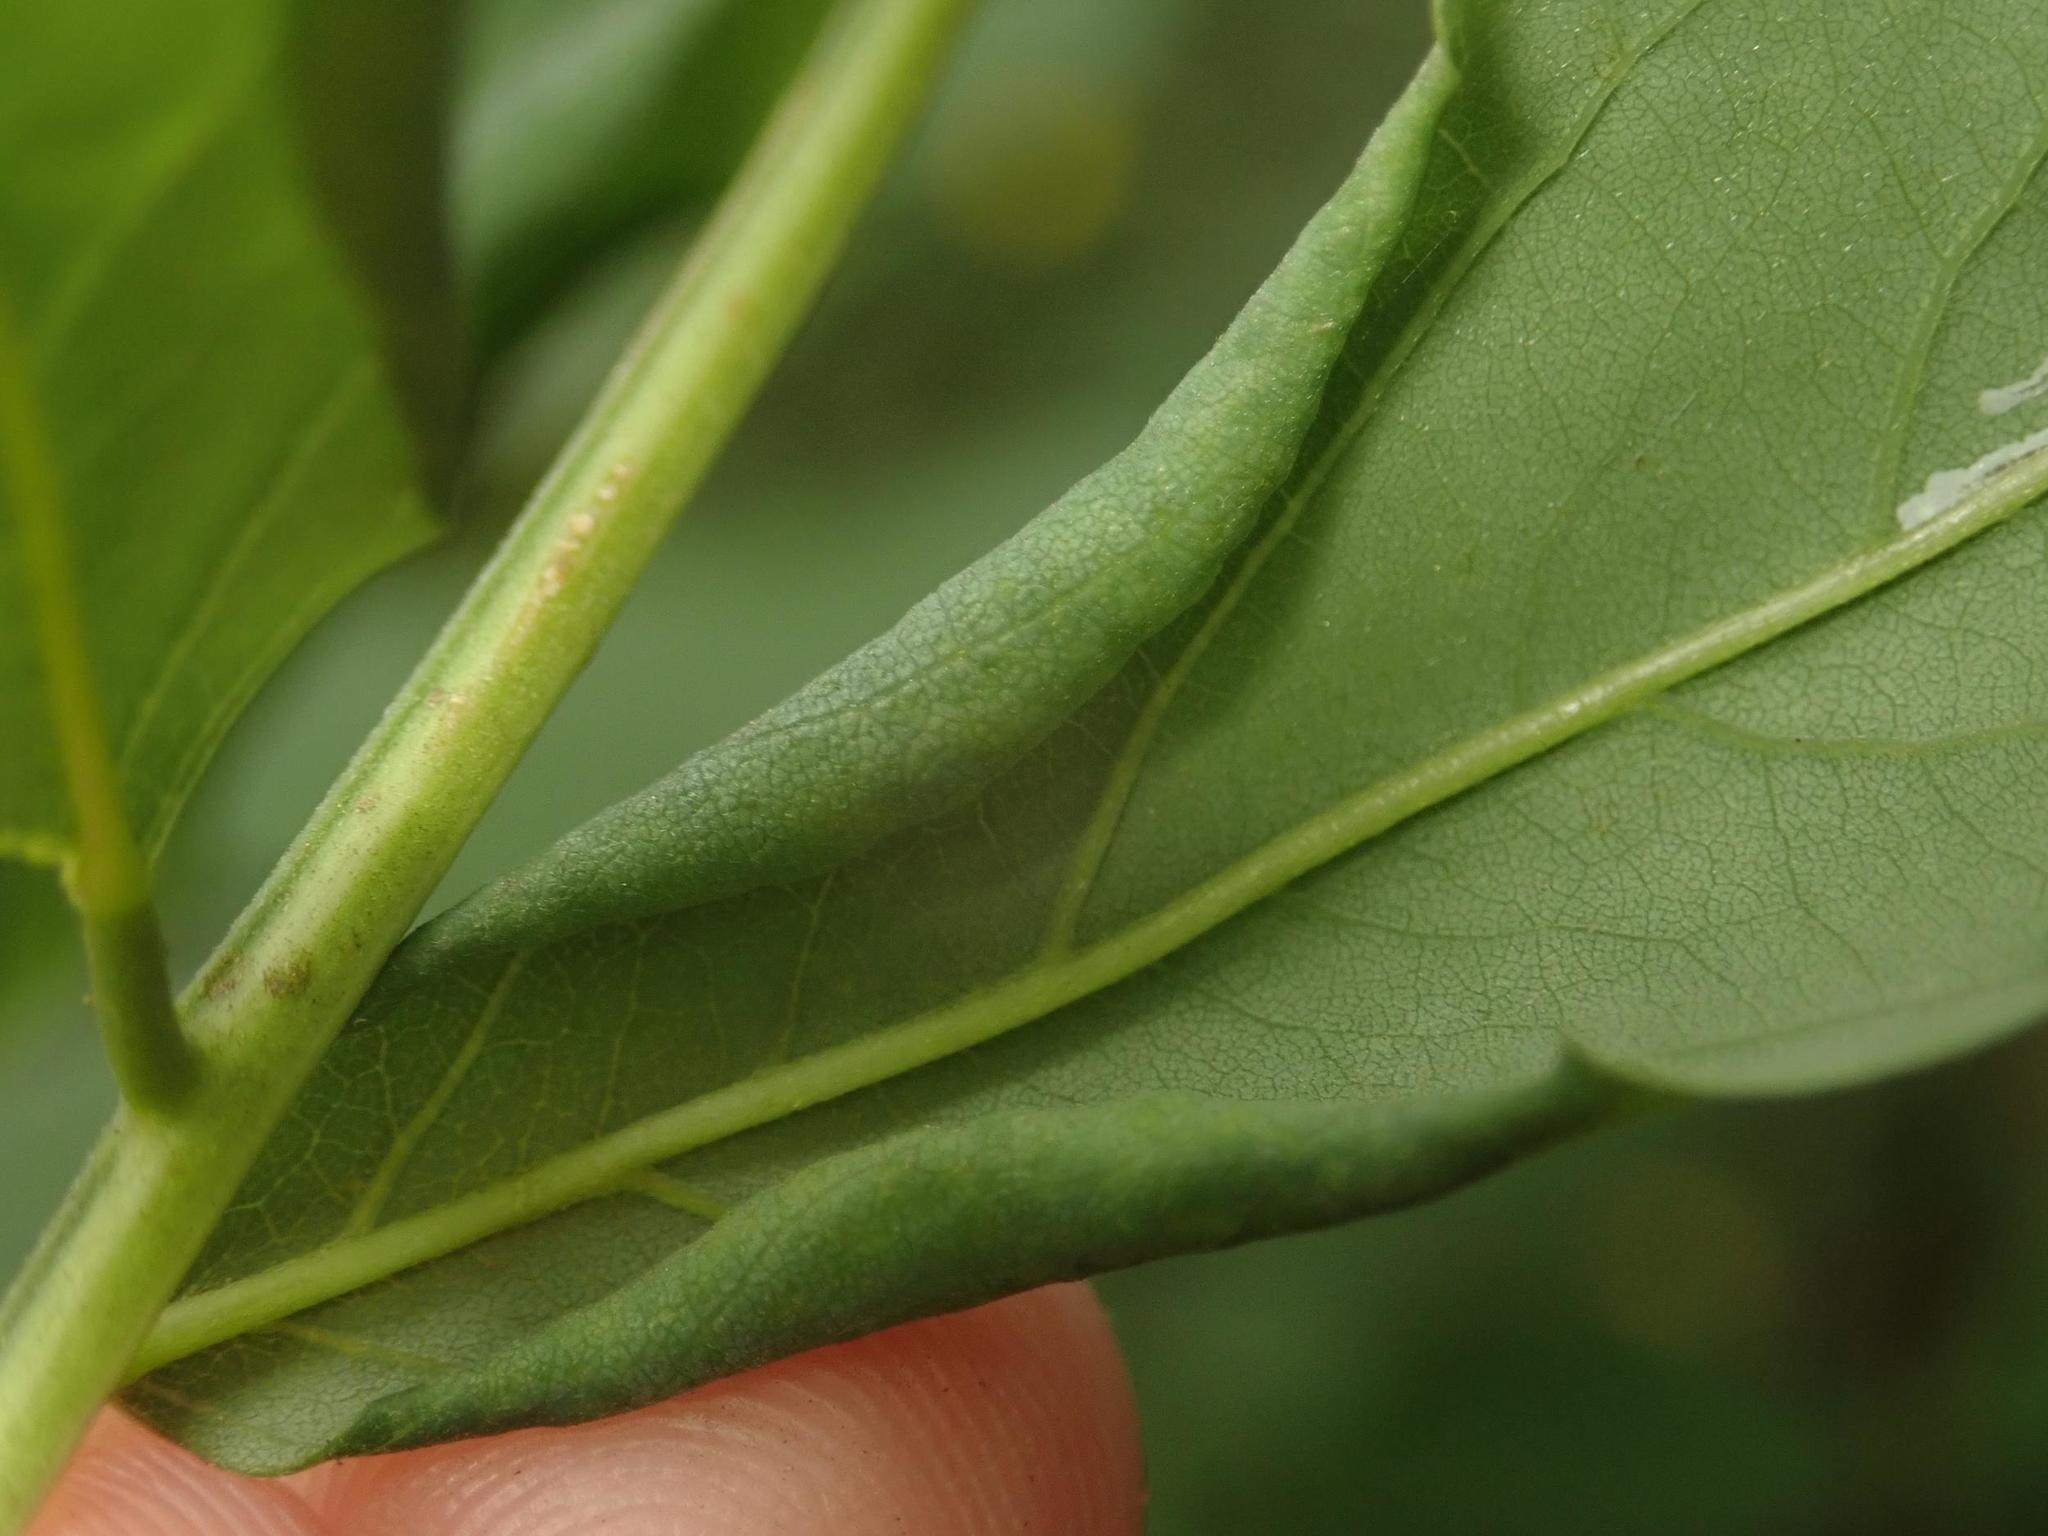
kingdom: Animalia
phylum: Arthropoda
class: Insecta
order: Diptera
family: Cecidomyiidae
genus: Obolodiplosis
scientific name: Obolodiplosis robiniae
